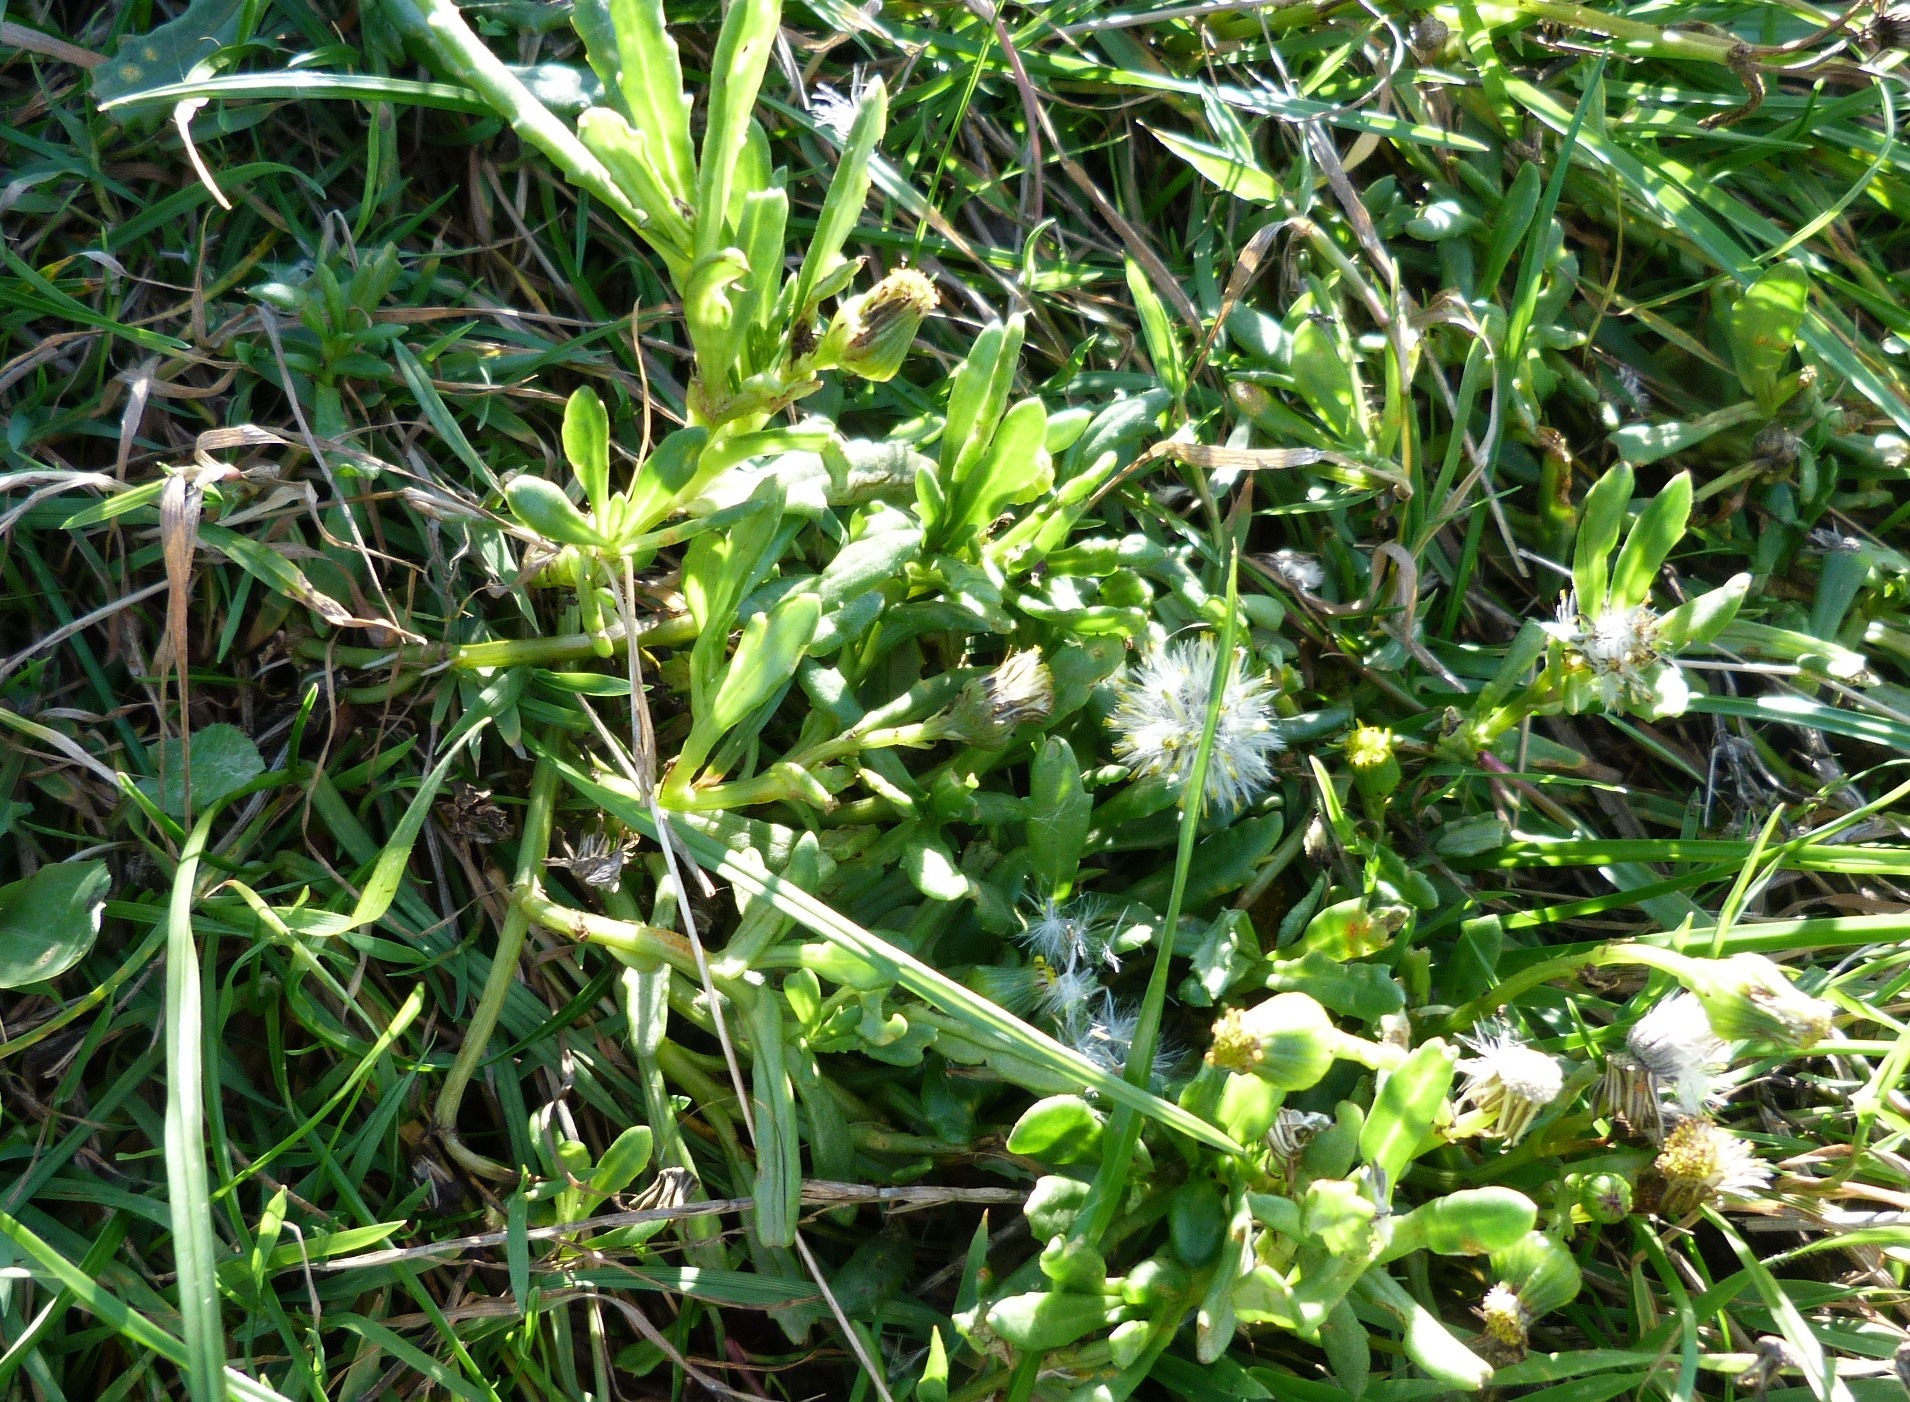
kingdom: Plantae
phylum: Tracheophyta
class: Magnoliopsida
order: Asterales
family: Asteraceae
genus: Senecio
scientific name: Senecio lautus
